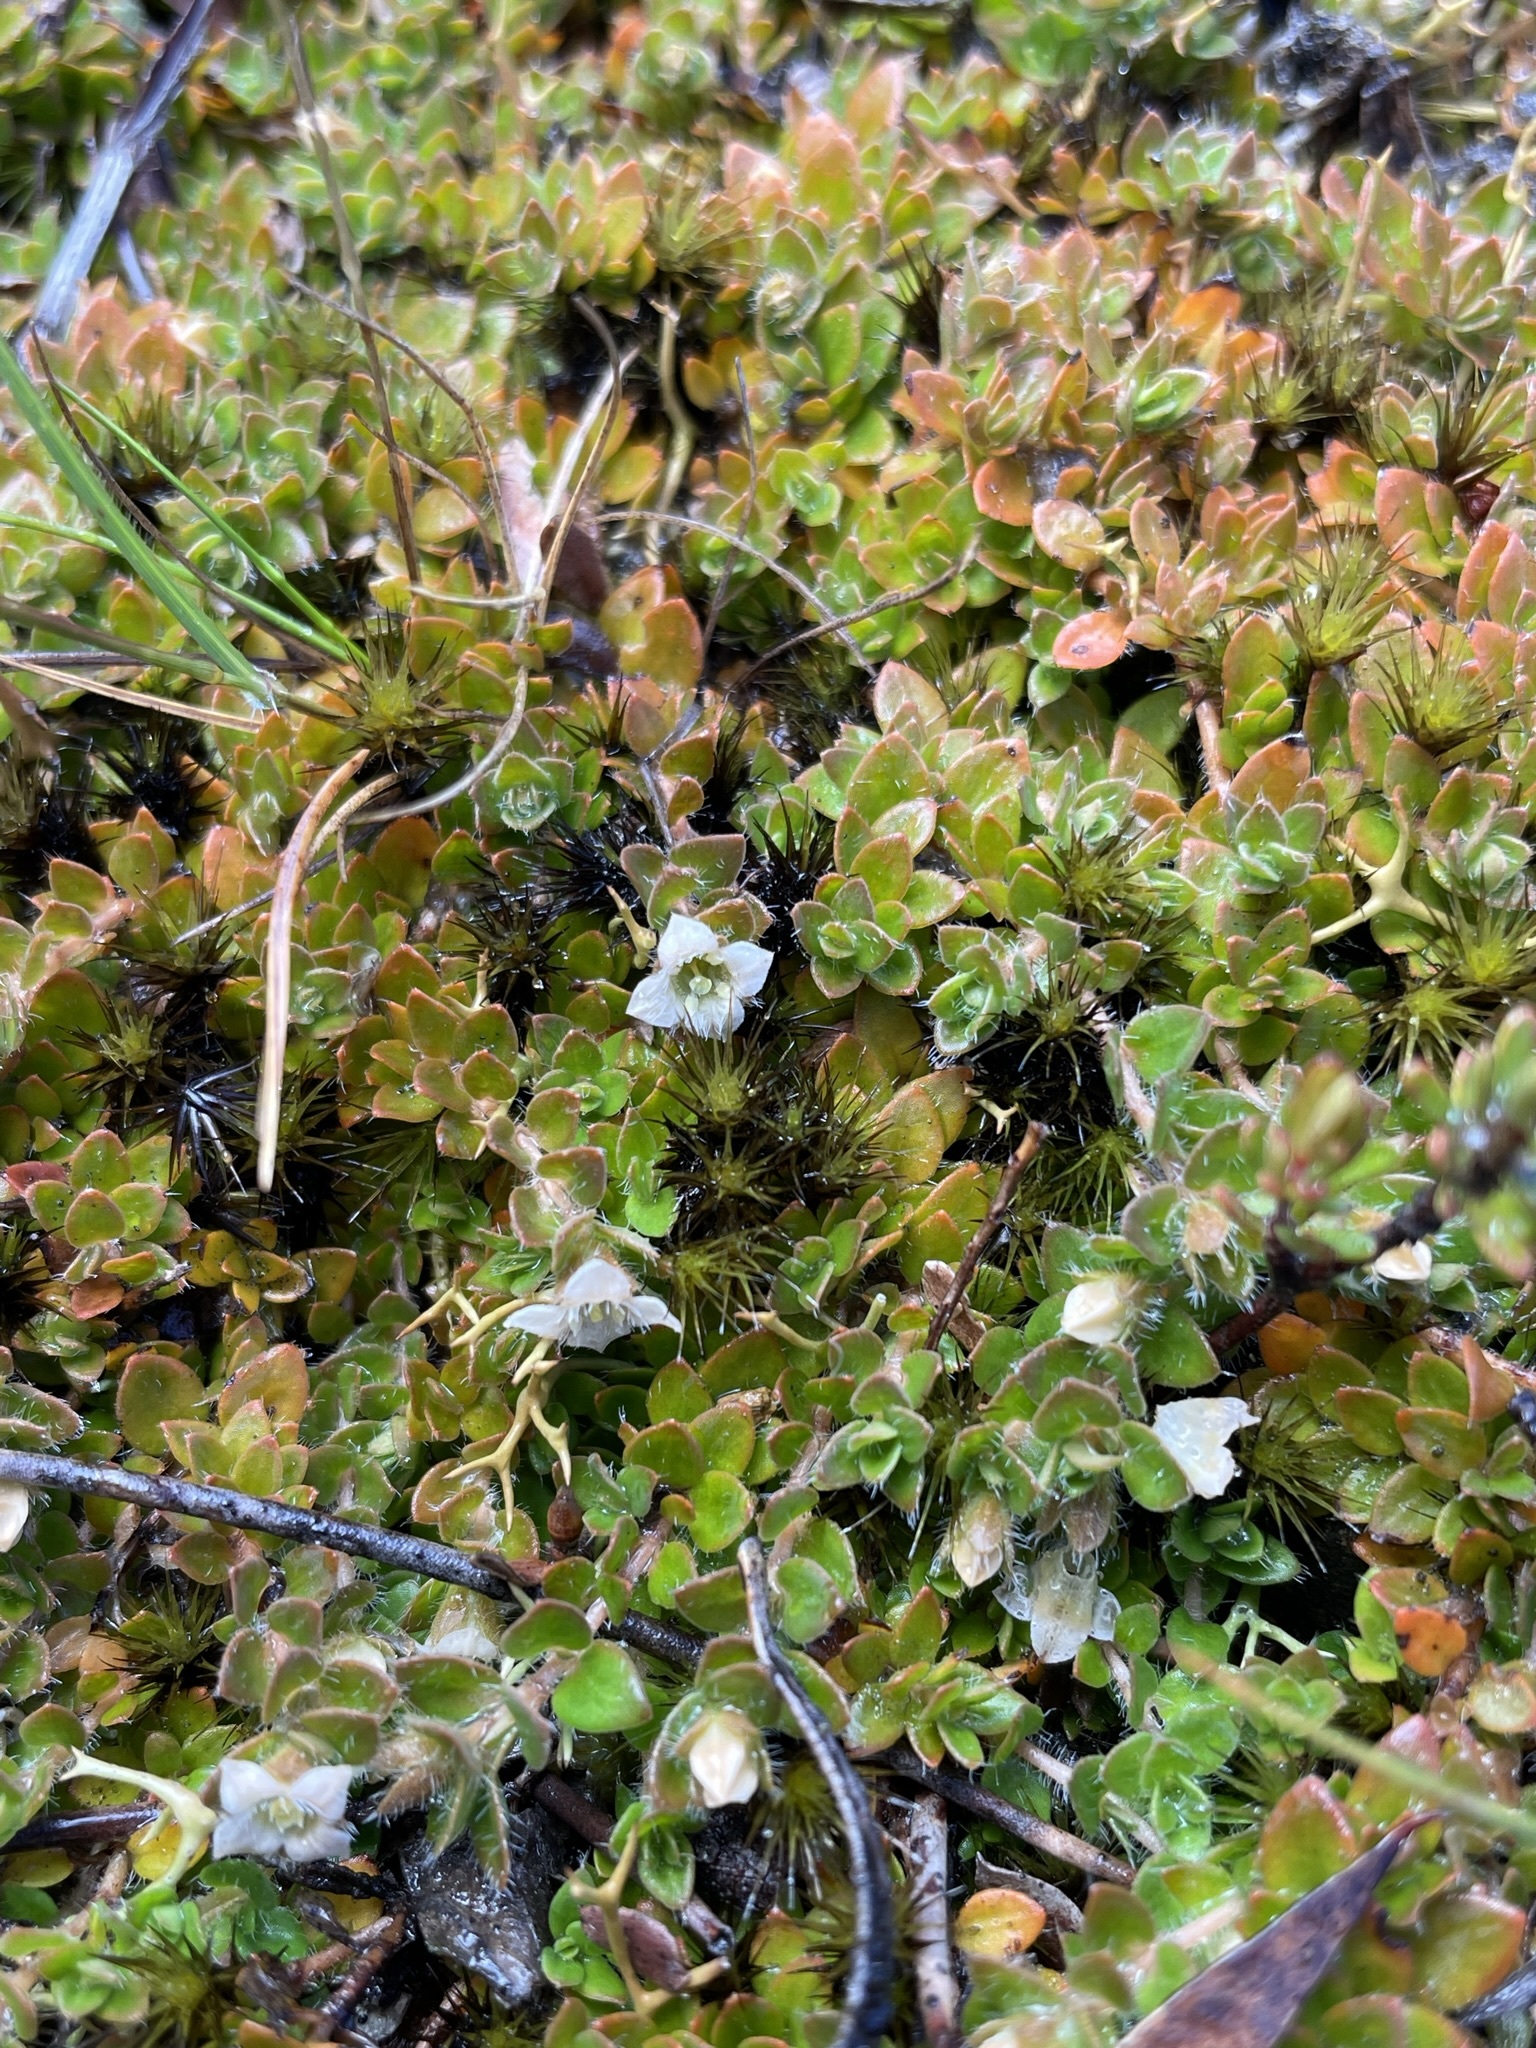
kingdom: Plantae
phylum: Tracheophyta
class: Magnoliopsida
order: Gentianales
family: Loganiaceae
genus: Mitrasacme
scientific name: Mitrasacme pilosa
